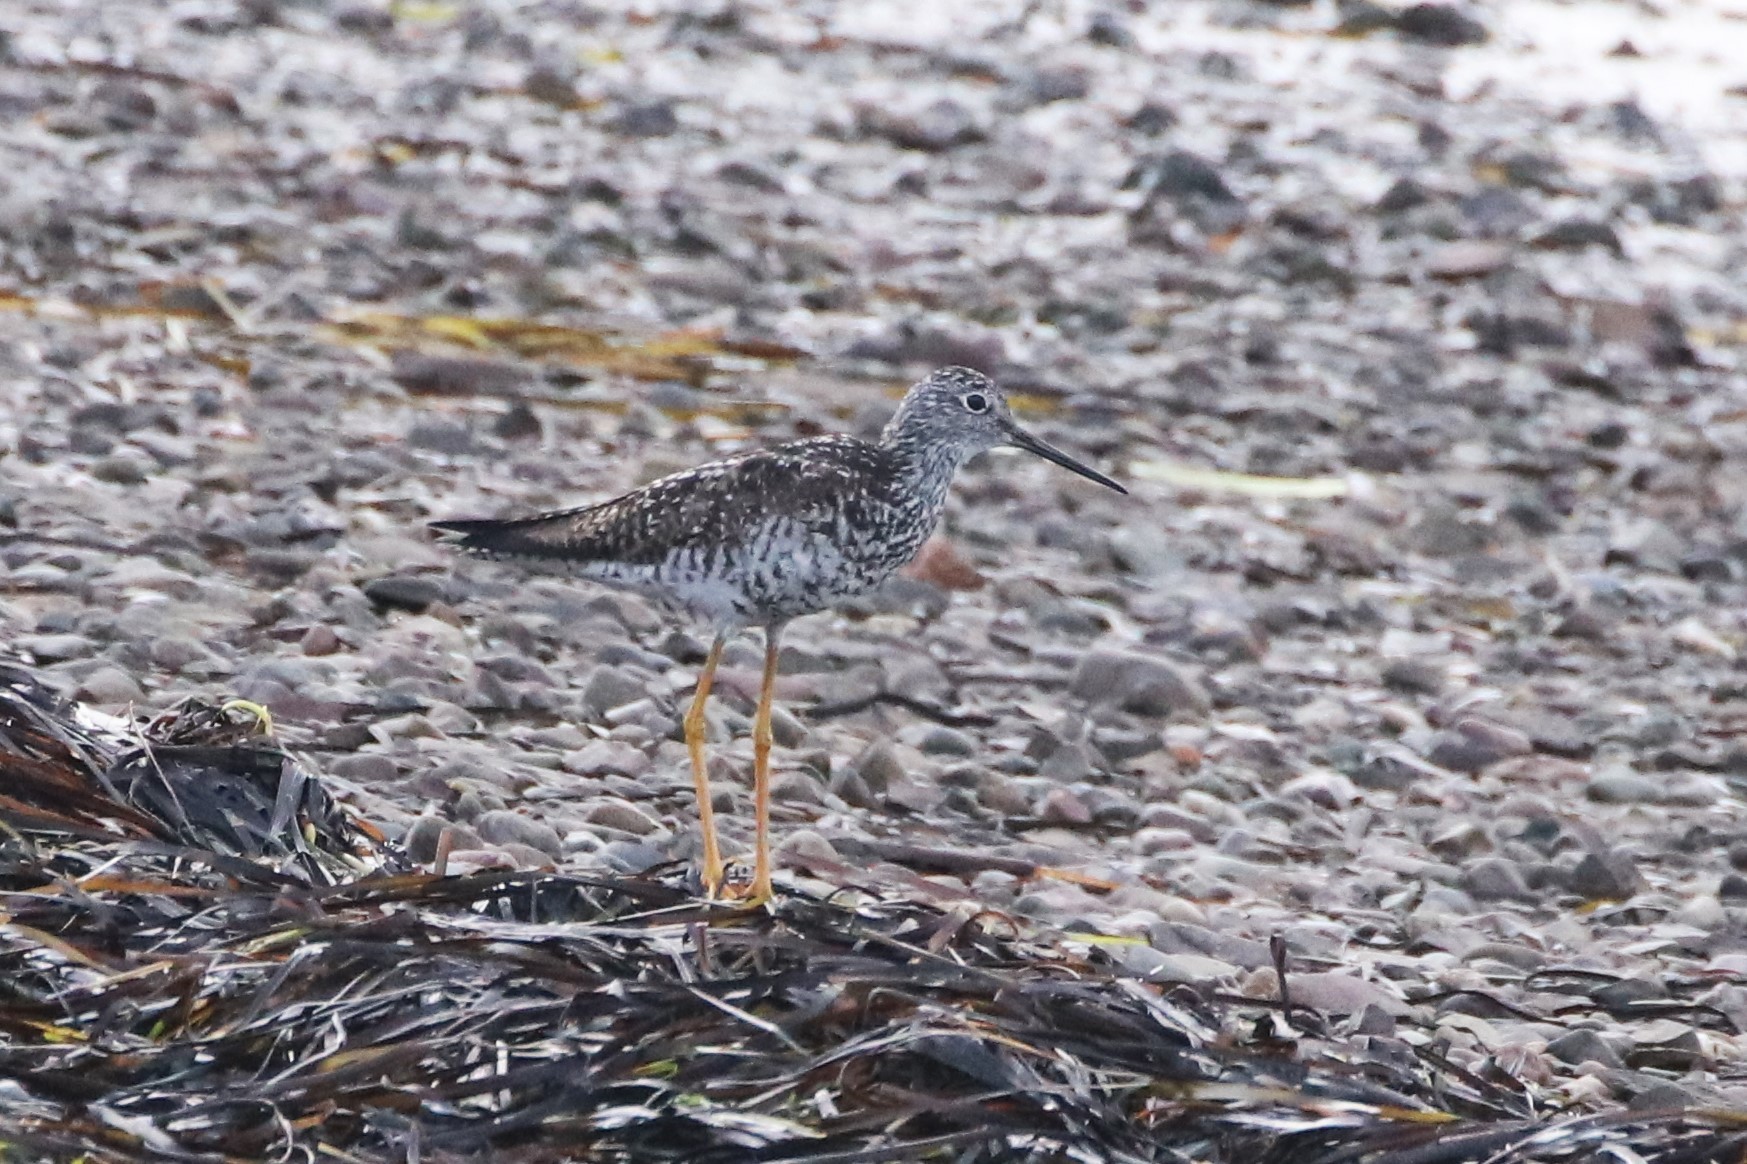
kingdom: Animalia
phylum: Chordata
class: Aves
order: Charadriiformes
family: Scolopacidae
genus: Tringa
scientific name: Tringa melanoleuca
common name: Greater yellowlegs
